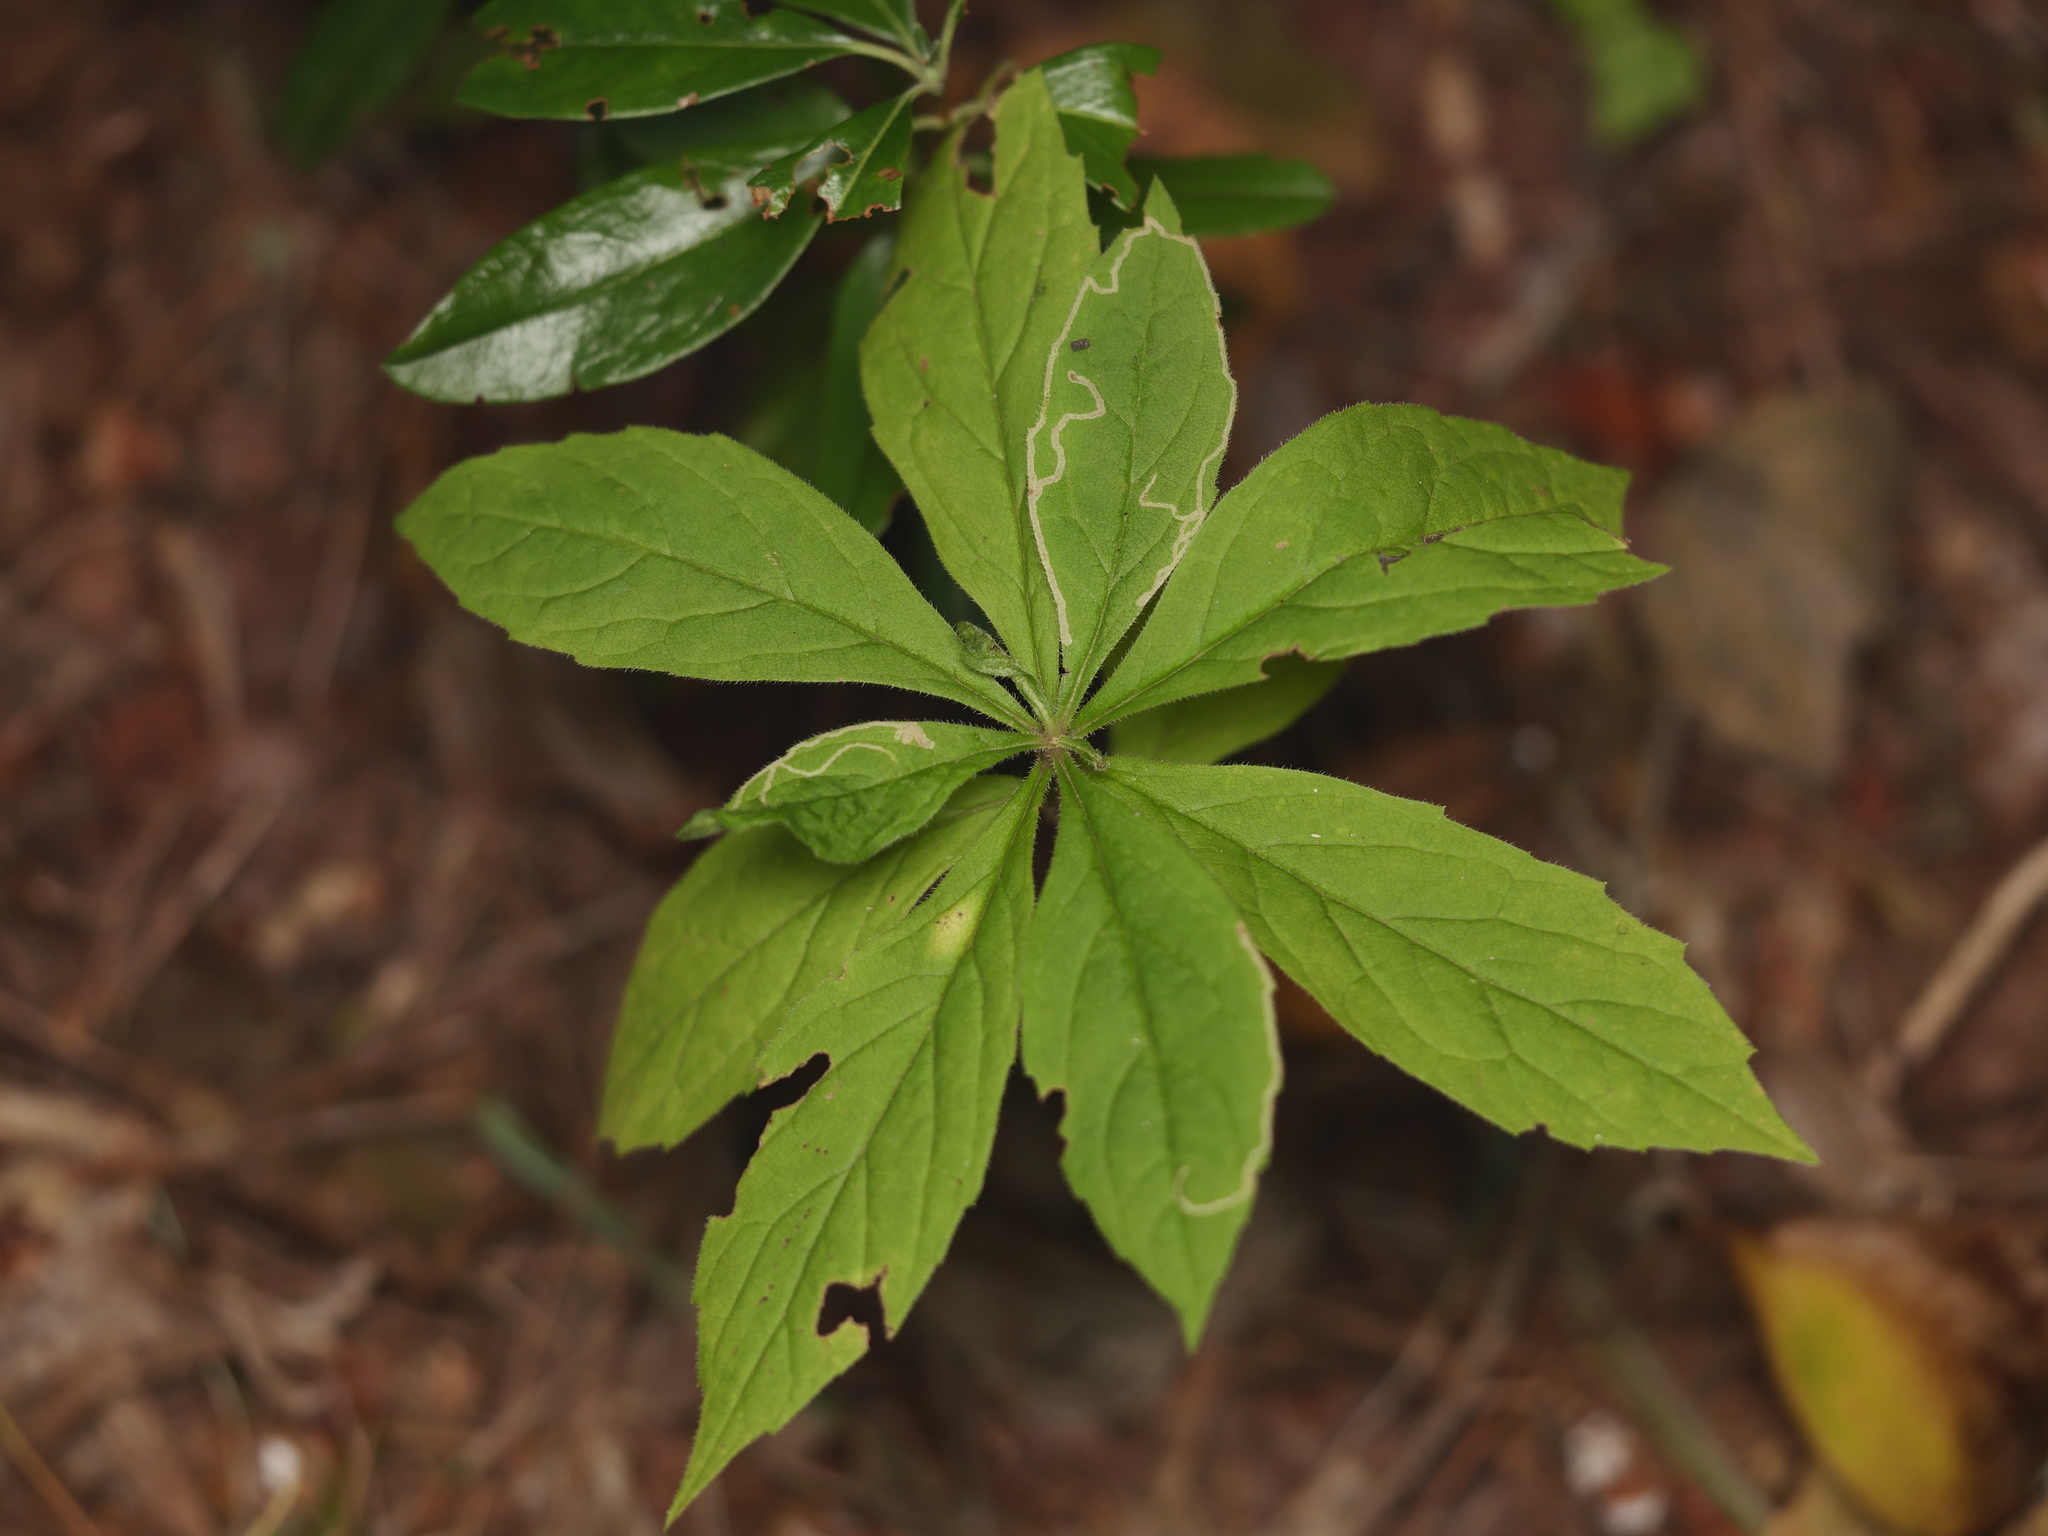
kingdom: Plantae
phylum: Tracheophyta
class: Magnoliopsida
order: Asterales
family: Asteraceae
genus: Oclemena
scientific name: Oclemena acuminata
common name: Mountain aster
